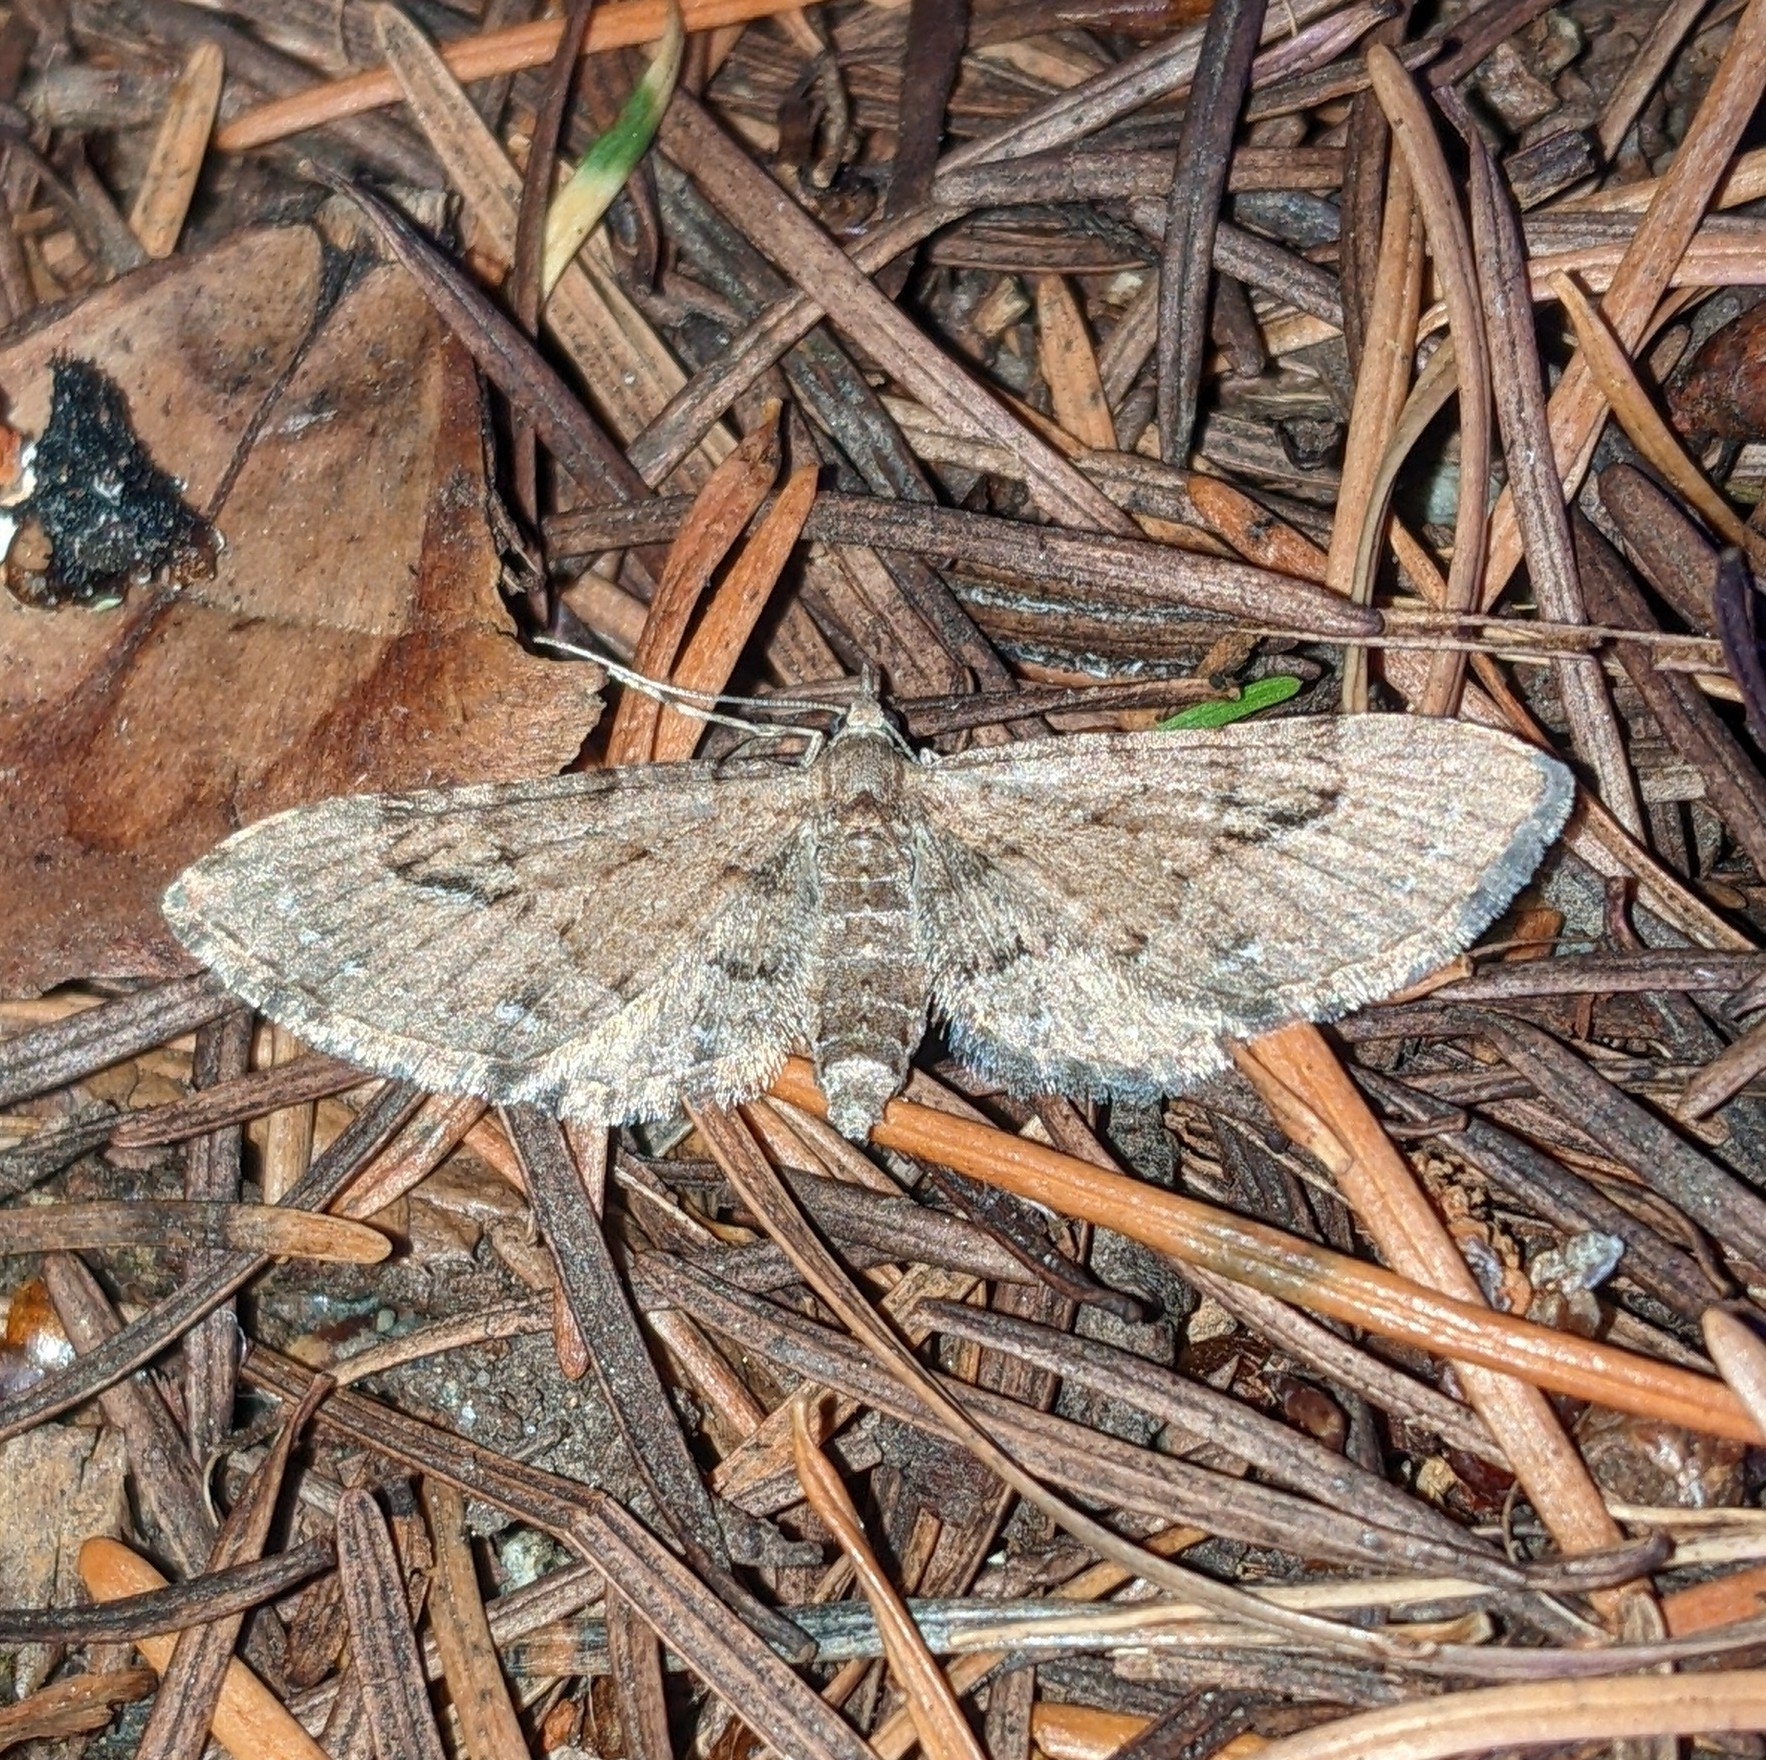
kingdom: Animalia
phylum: Arthropoda
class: Insecta
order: Lepidoptera
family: Geometridae
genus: Eupithecia
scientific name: Eupithecia unicolor
